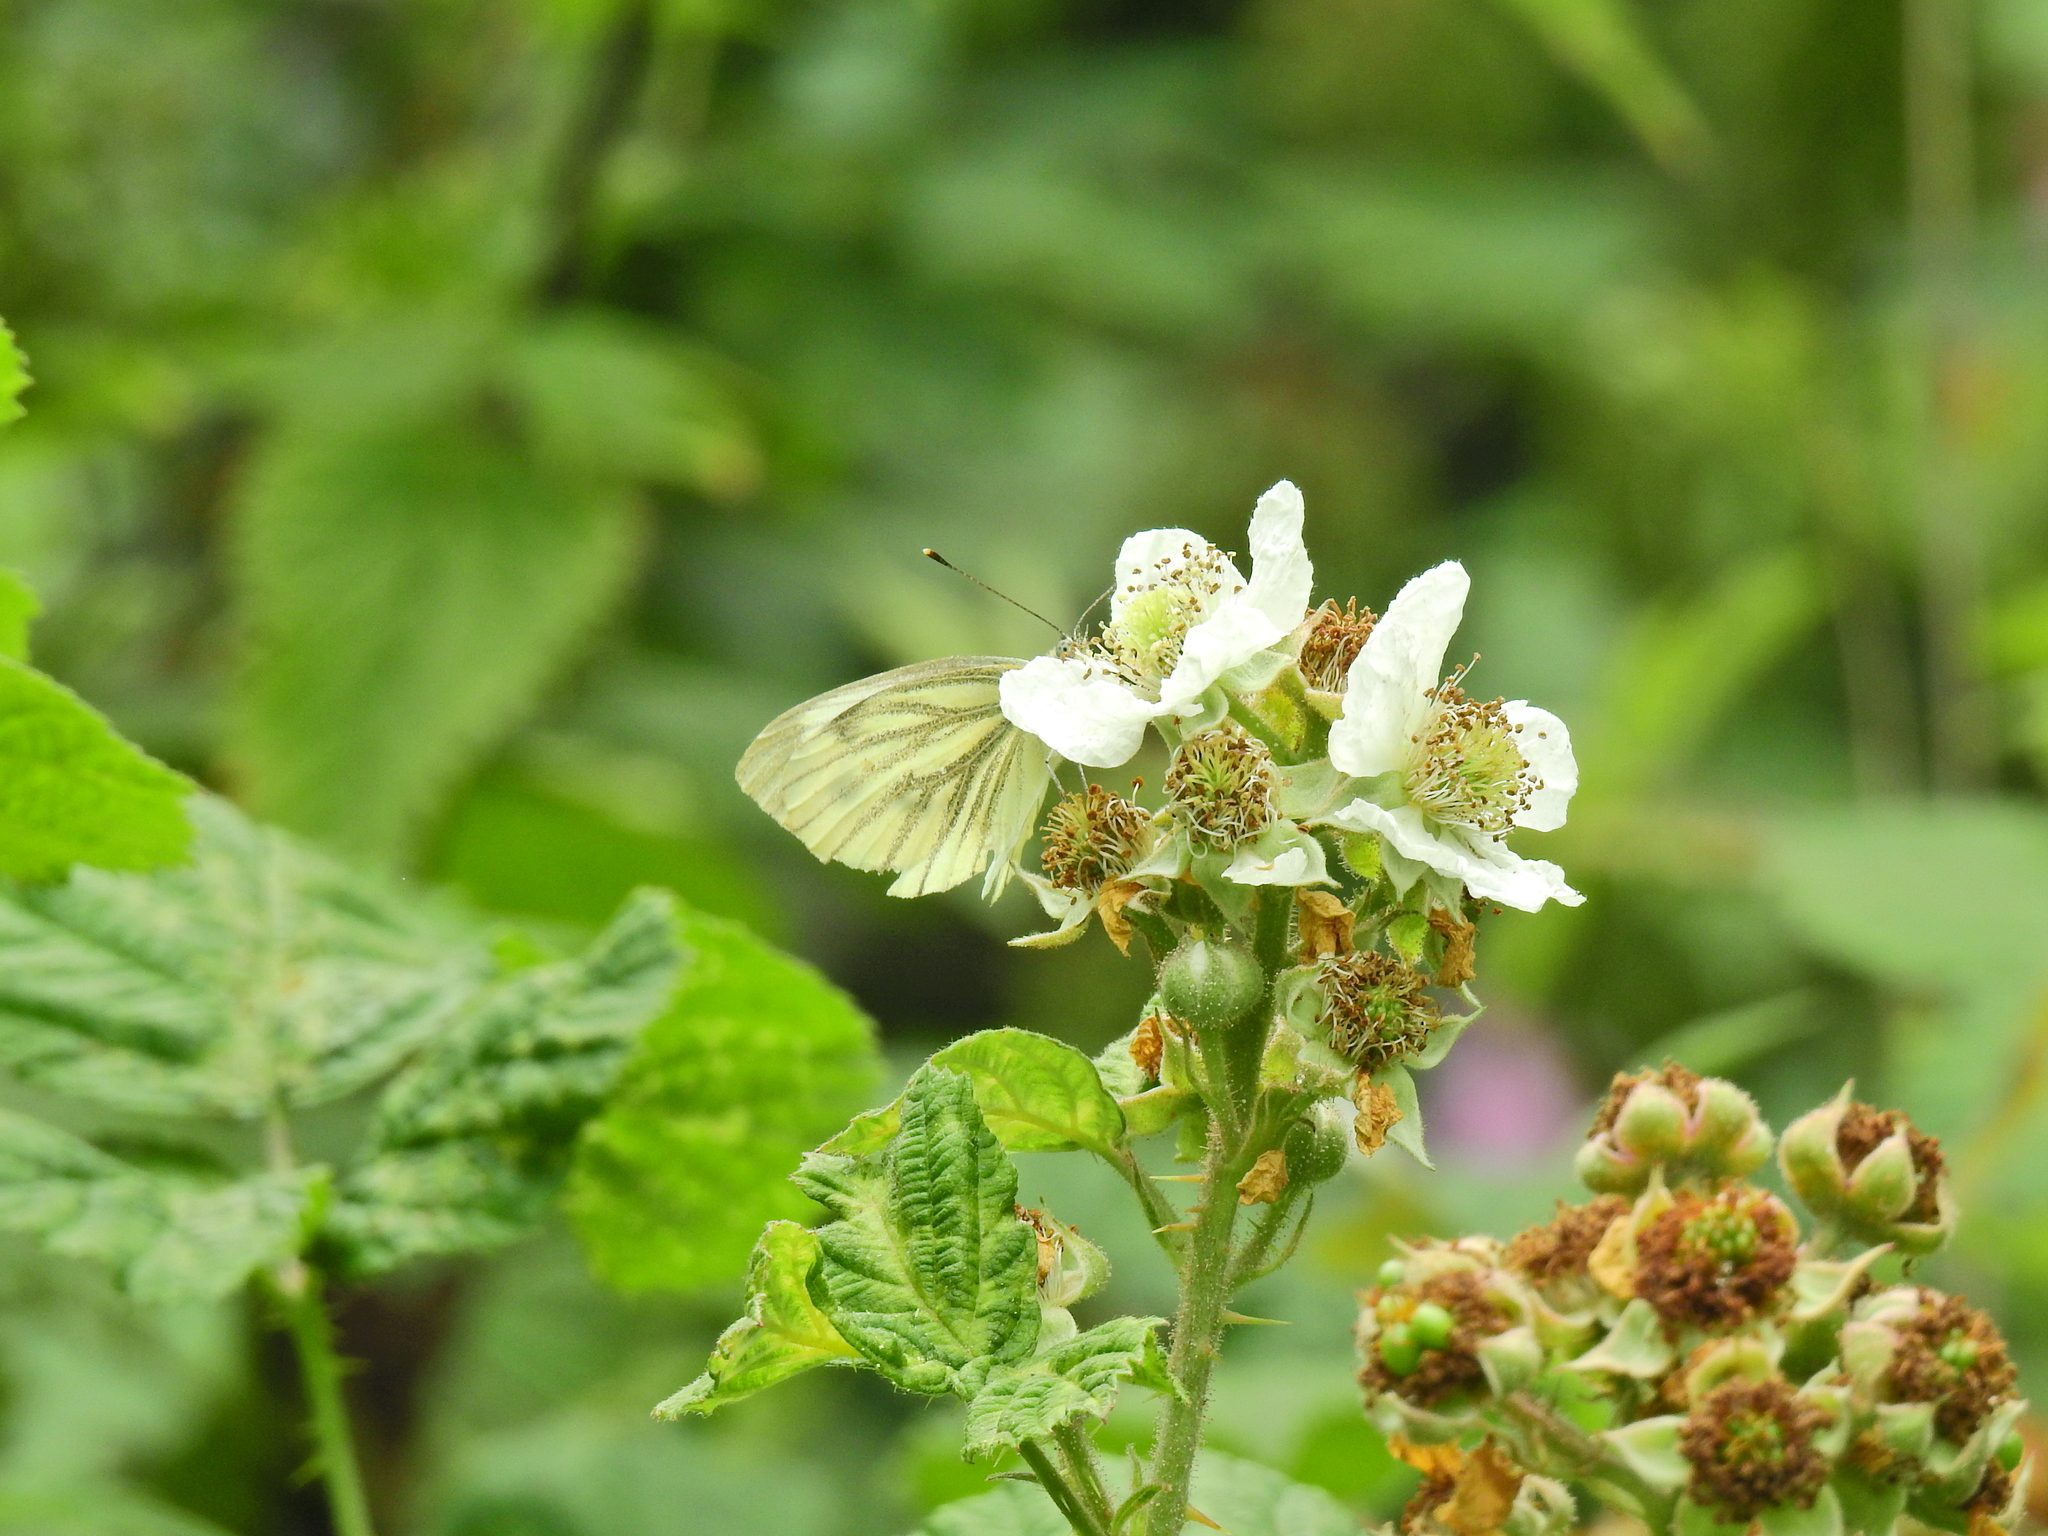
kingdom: Animalia
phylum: Arthropoda
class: Insecta
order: Lepidoptera
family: Pieridae
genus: Pieris
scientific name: Pieris napi
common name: Green-veined white
